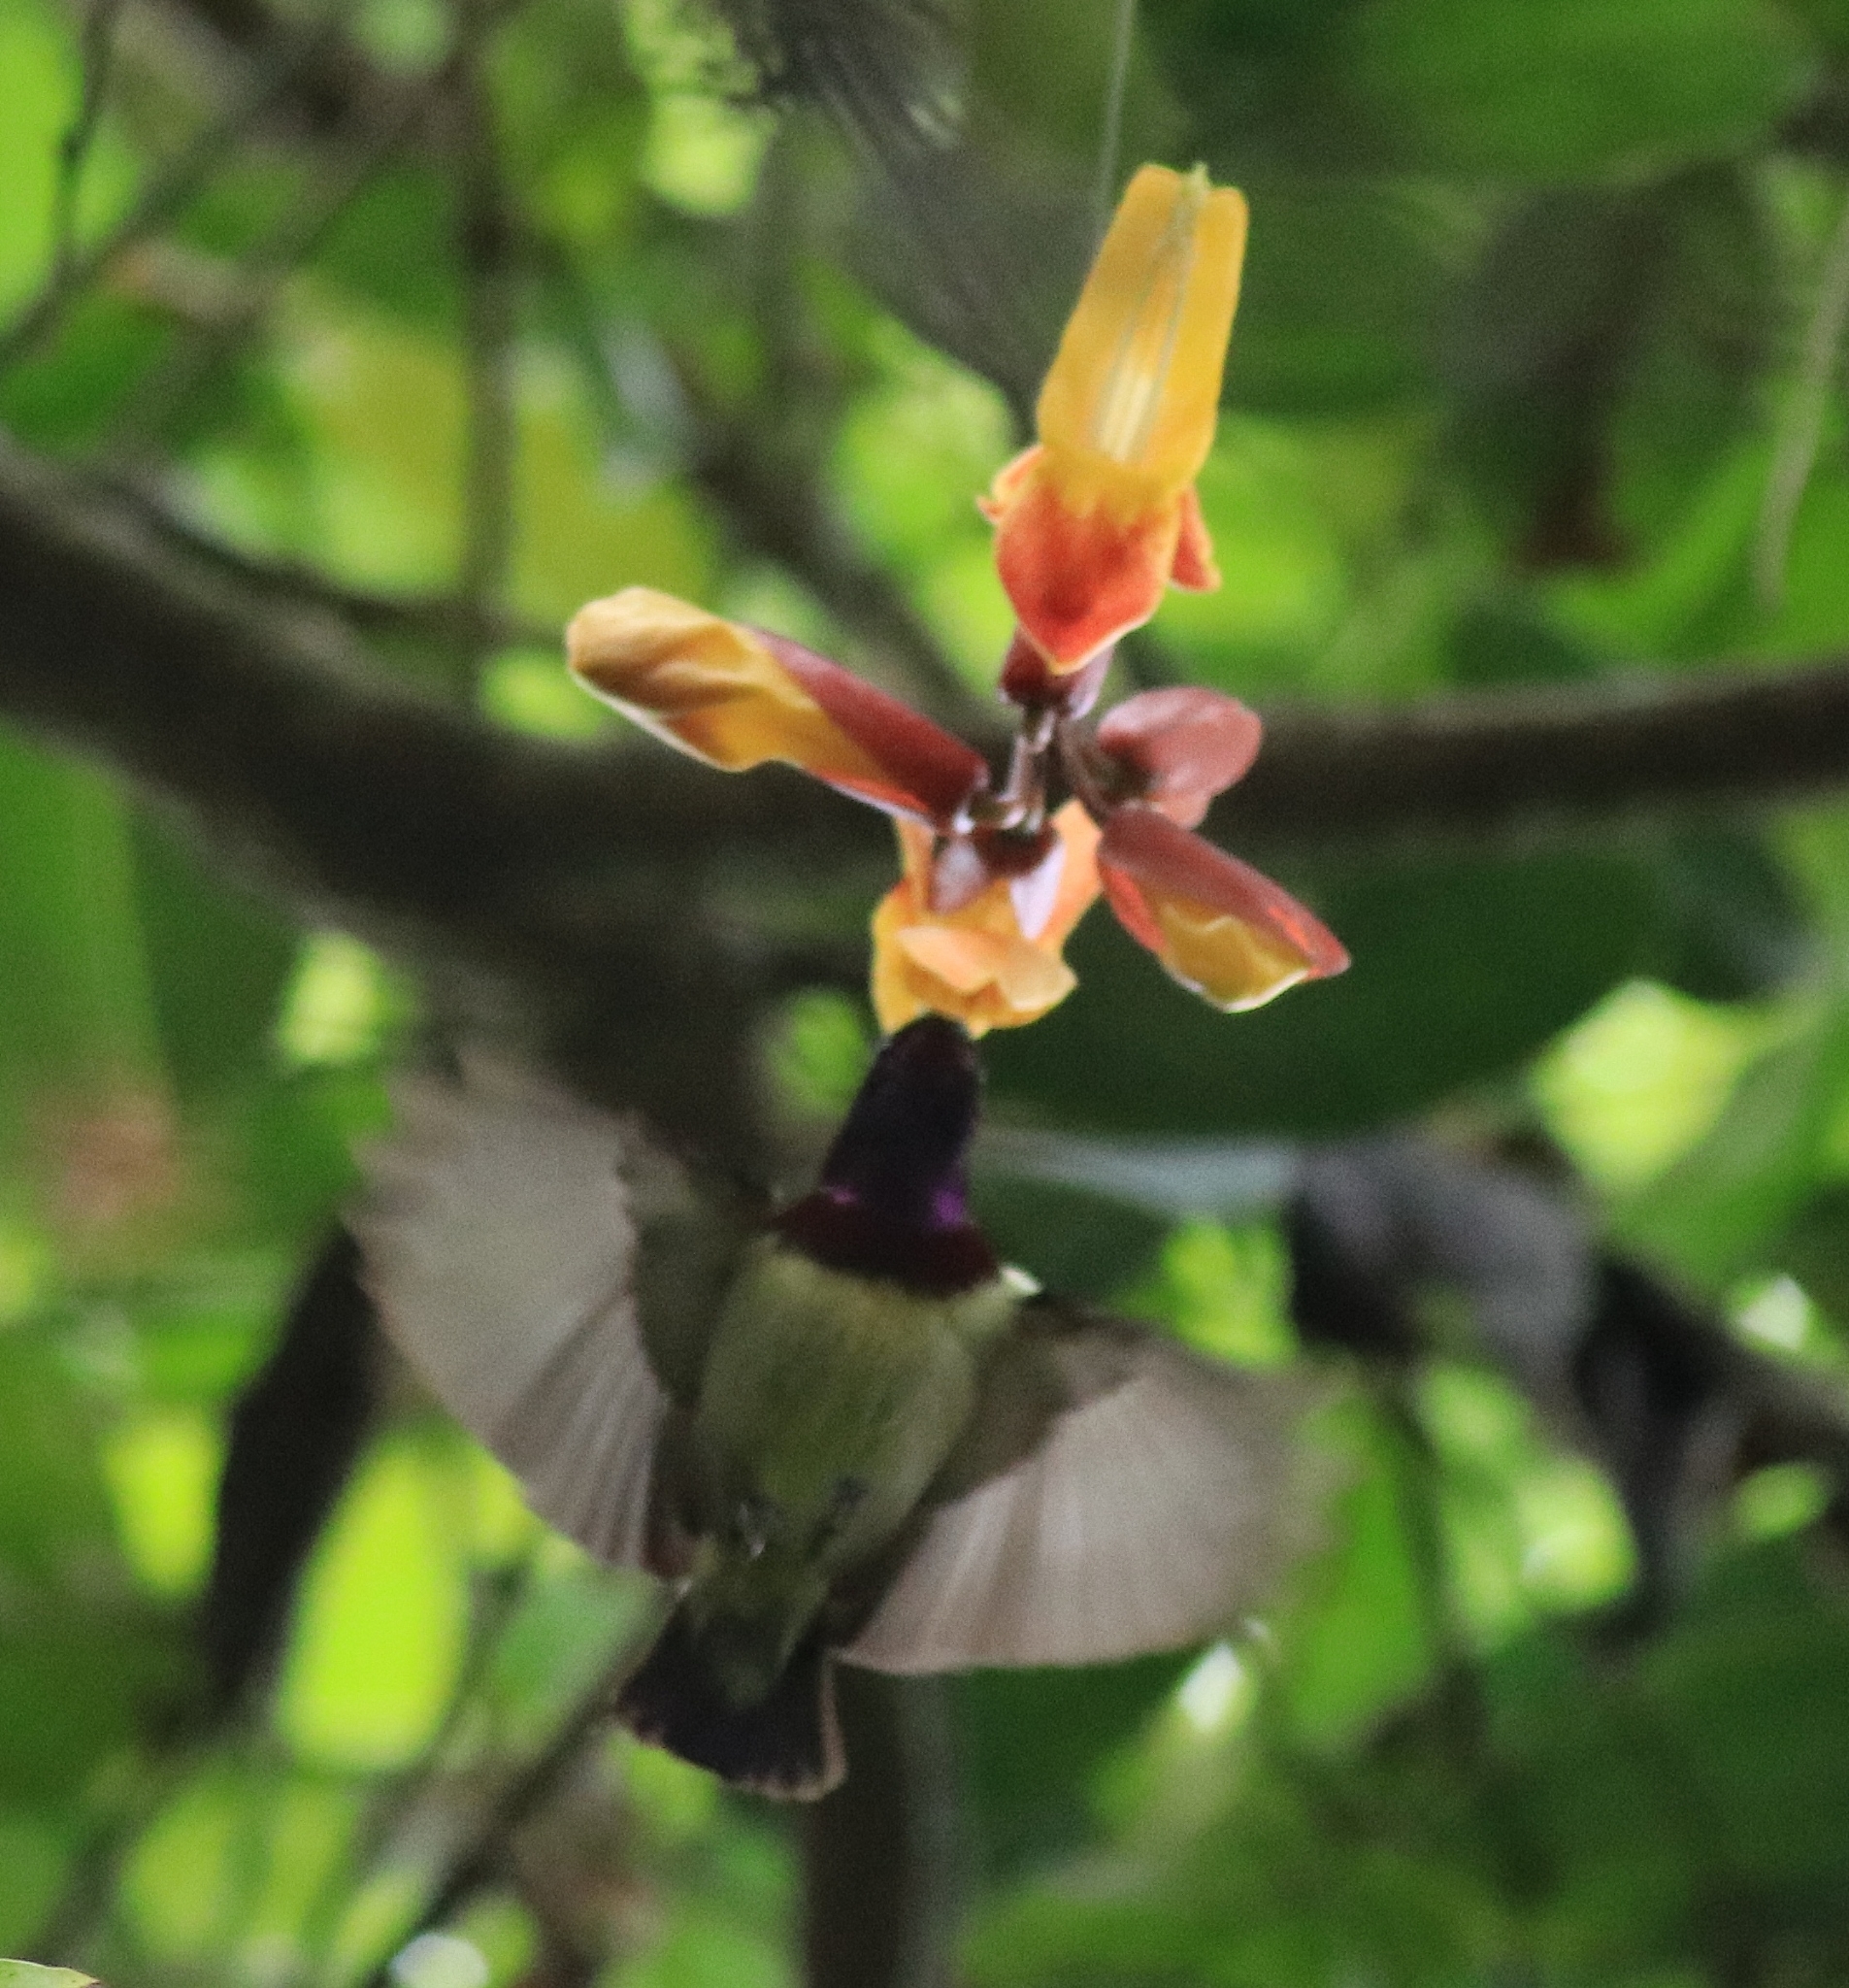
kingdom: Animalia
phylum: Chordata
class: Aves
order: Passeriformes
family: Nectariniidae
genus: Leptocoma
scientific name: Leptocoma minima
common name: Crimson-backed sunbird
